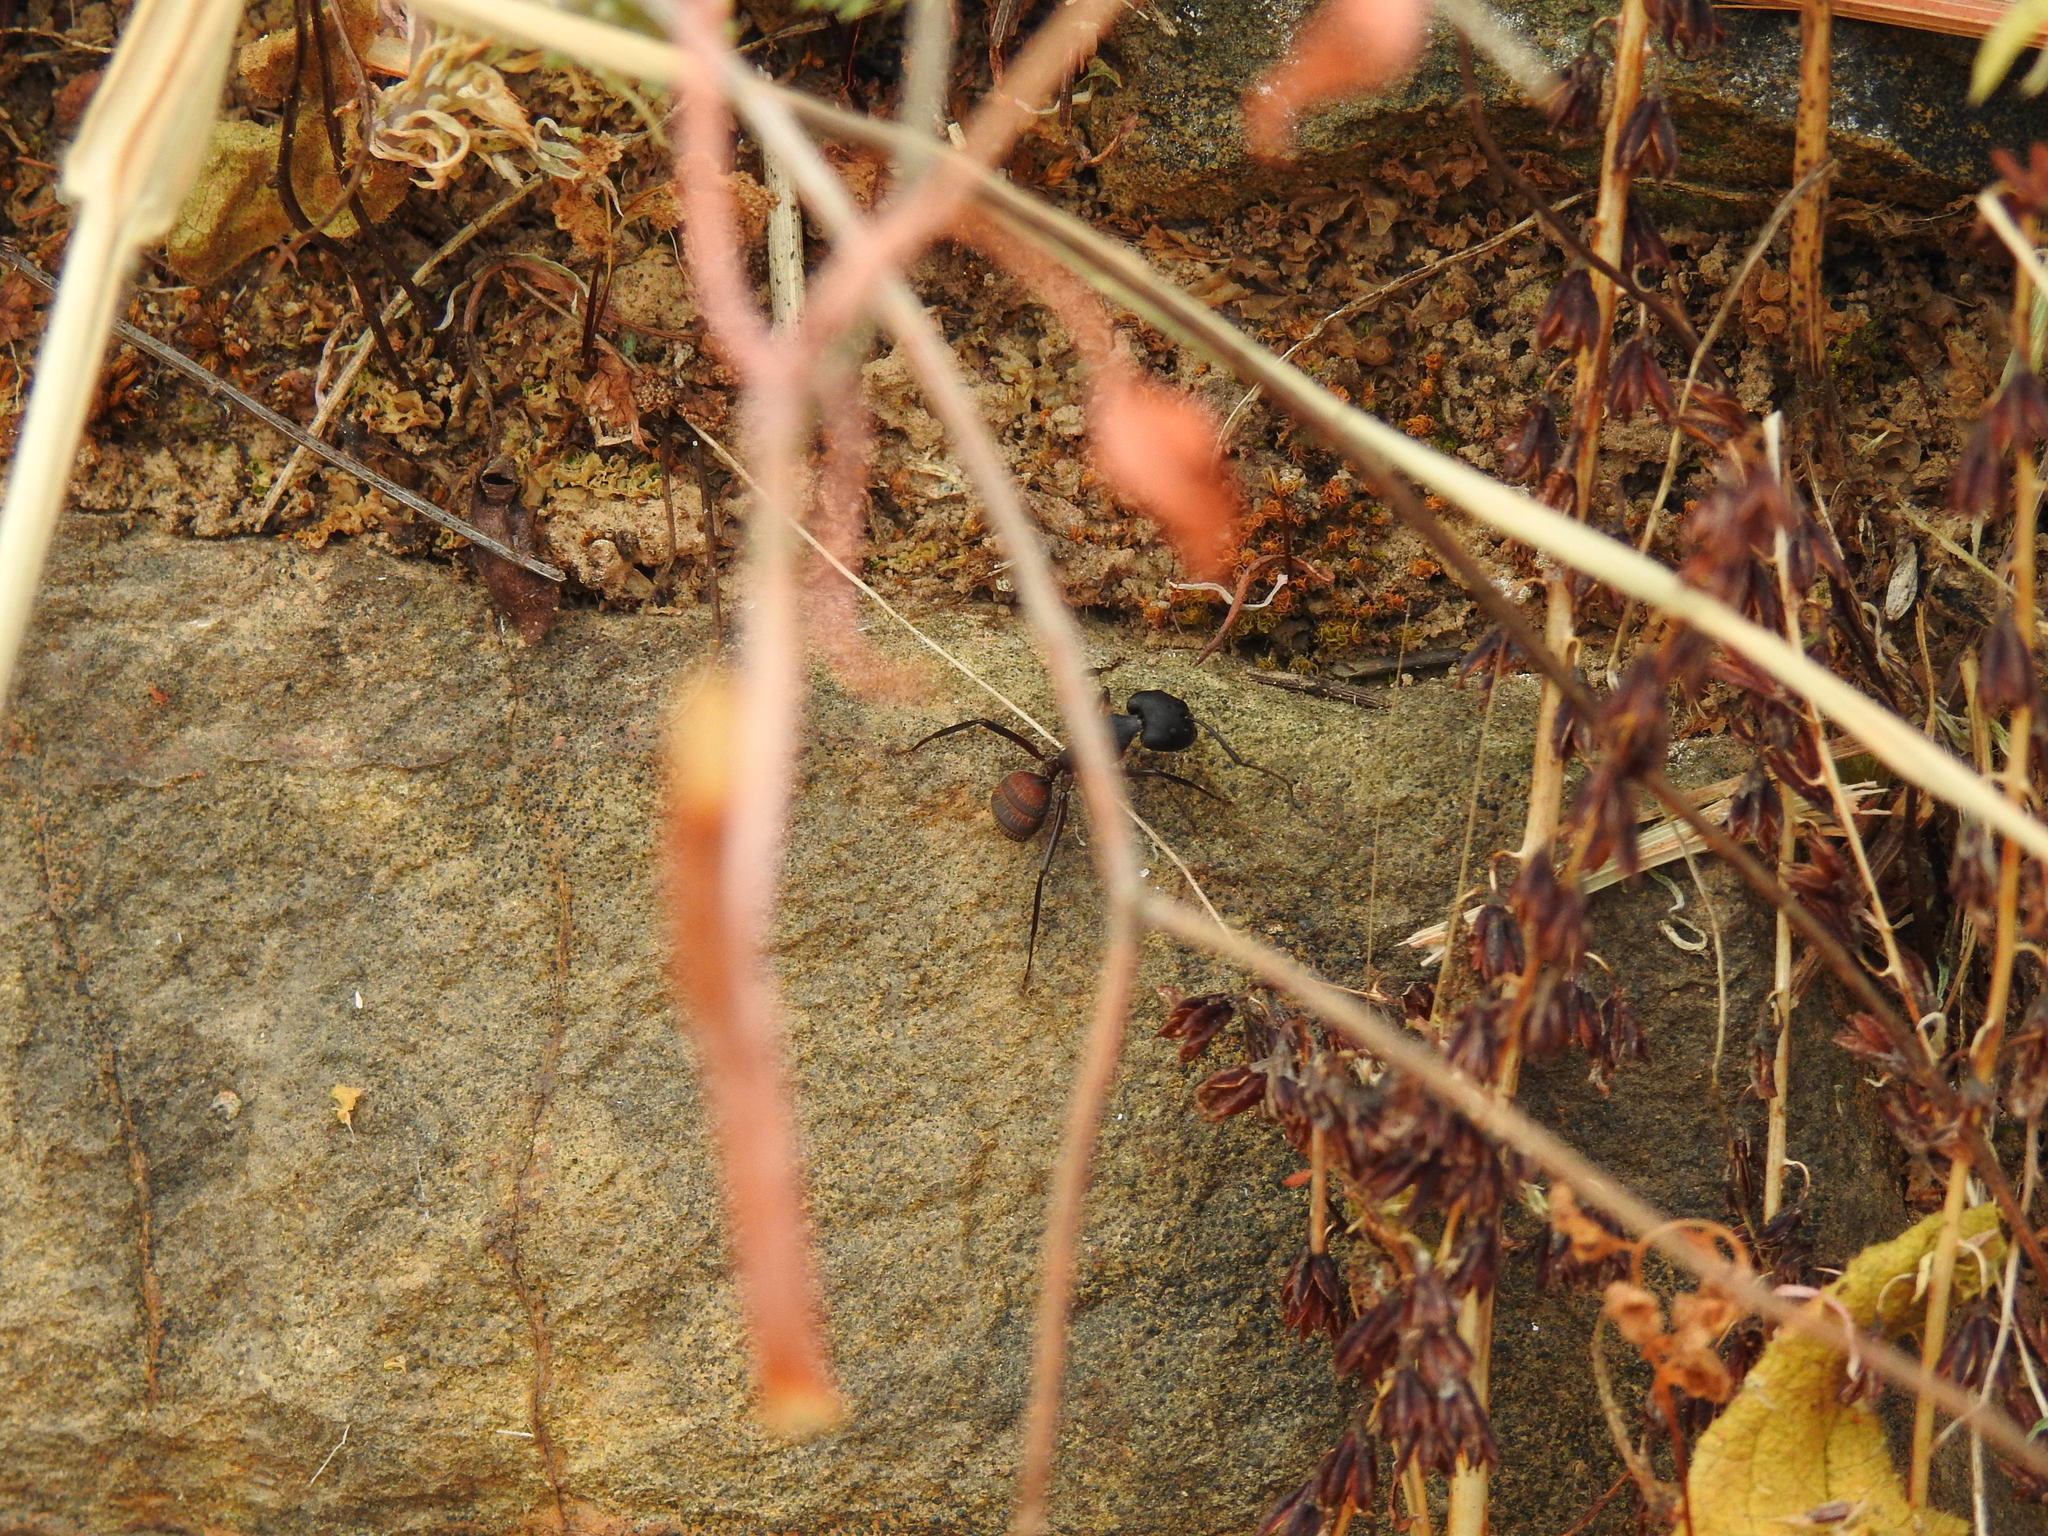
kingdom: Animalia
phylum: Arthropoda
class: Insecta
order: Hymenoptera
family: Formicidae
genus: Camponotus
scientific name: Camponotus cruentatus
